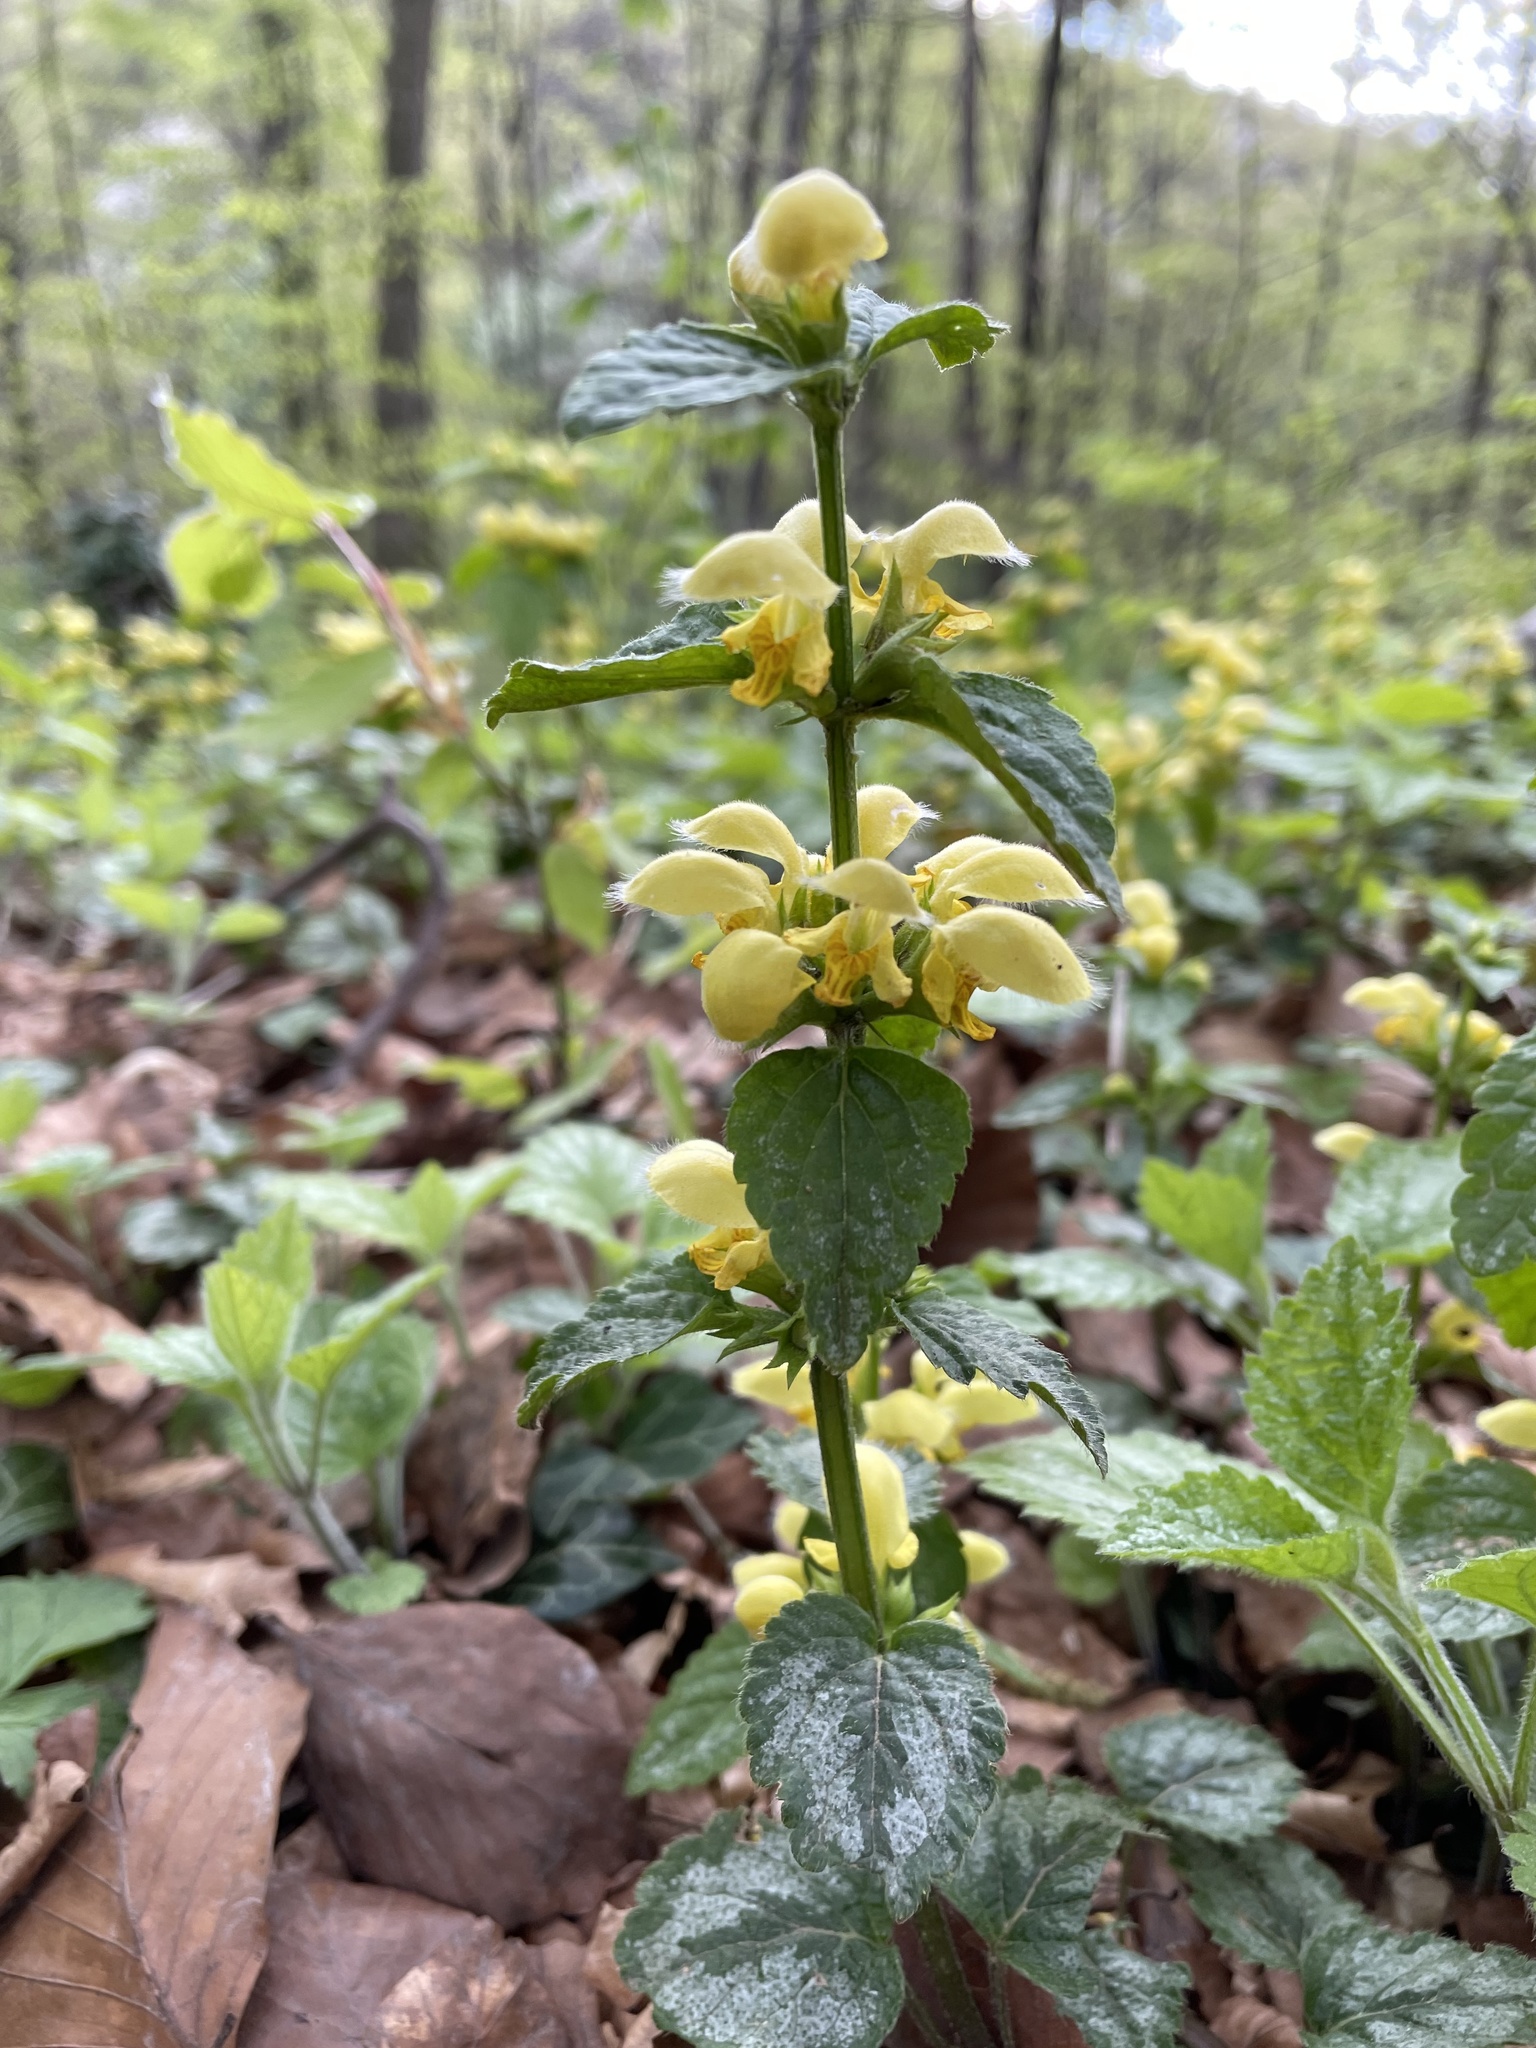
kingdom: Plantae
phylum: Tracheophyta
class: Magnoliopsida
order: Lamiales
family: Lamiaceae
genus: Lamium
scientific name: Lamium galeobdolon
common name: Yellow archangel
